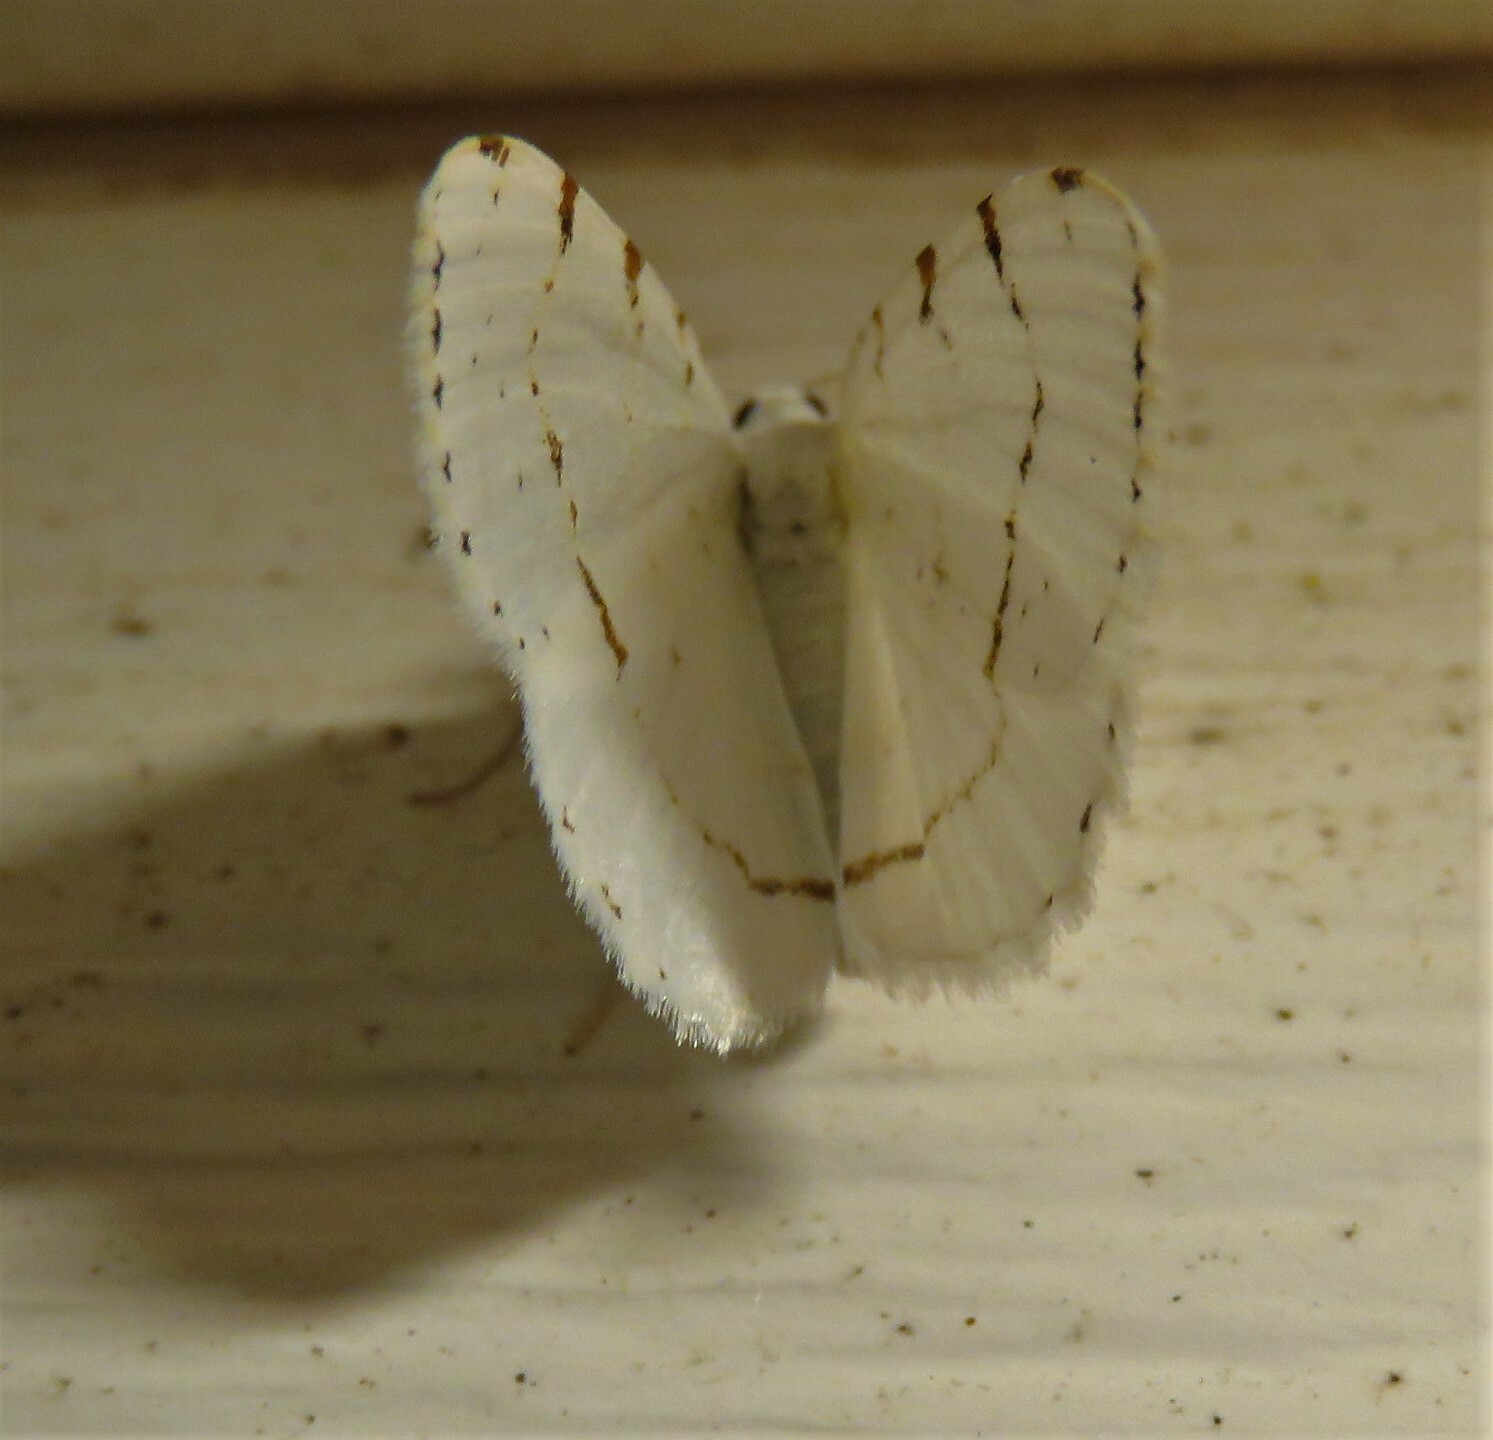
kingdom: Animalia
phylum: Arthropoda
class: Insecta
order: Lepidoptera
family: Geometridae
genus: Macaria
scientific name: Macaria pustularia
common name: Lesser maple spanworm moth
